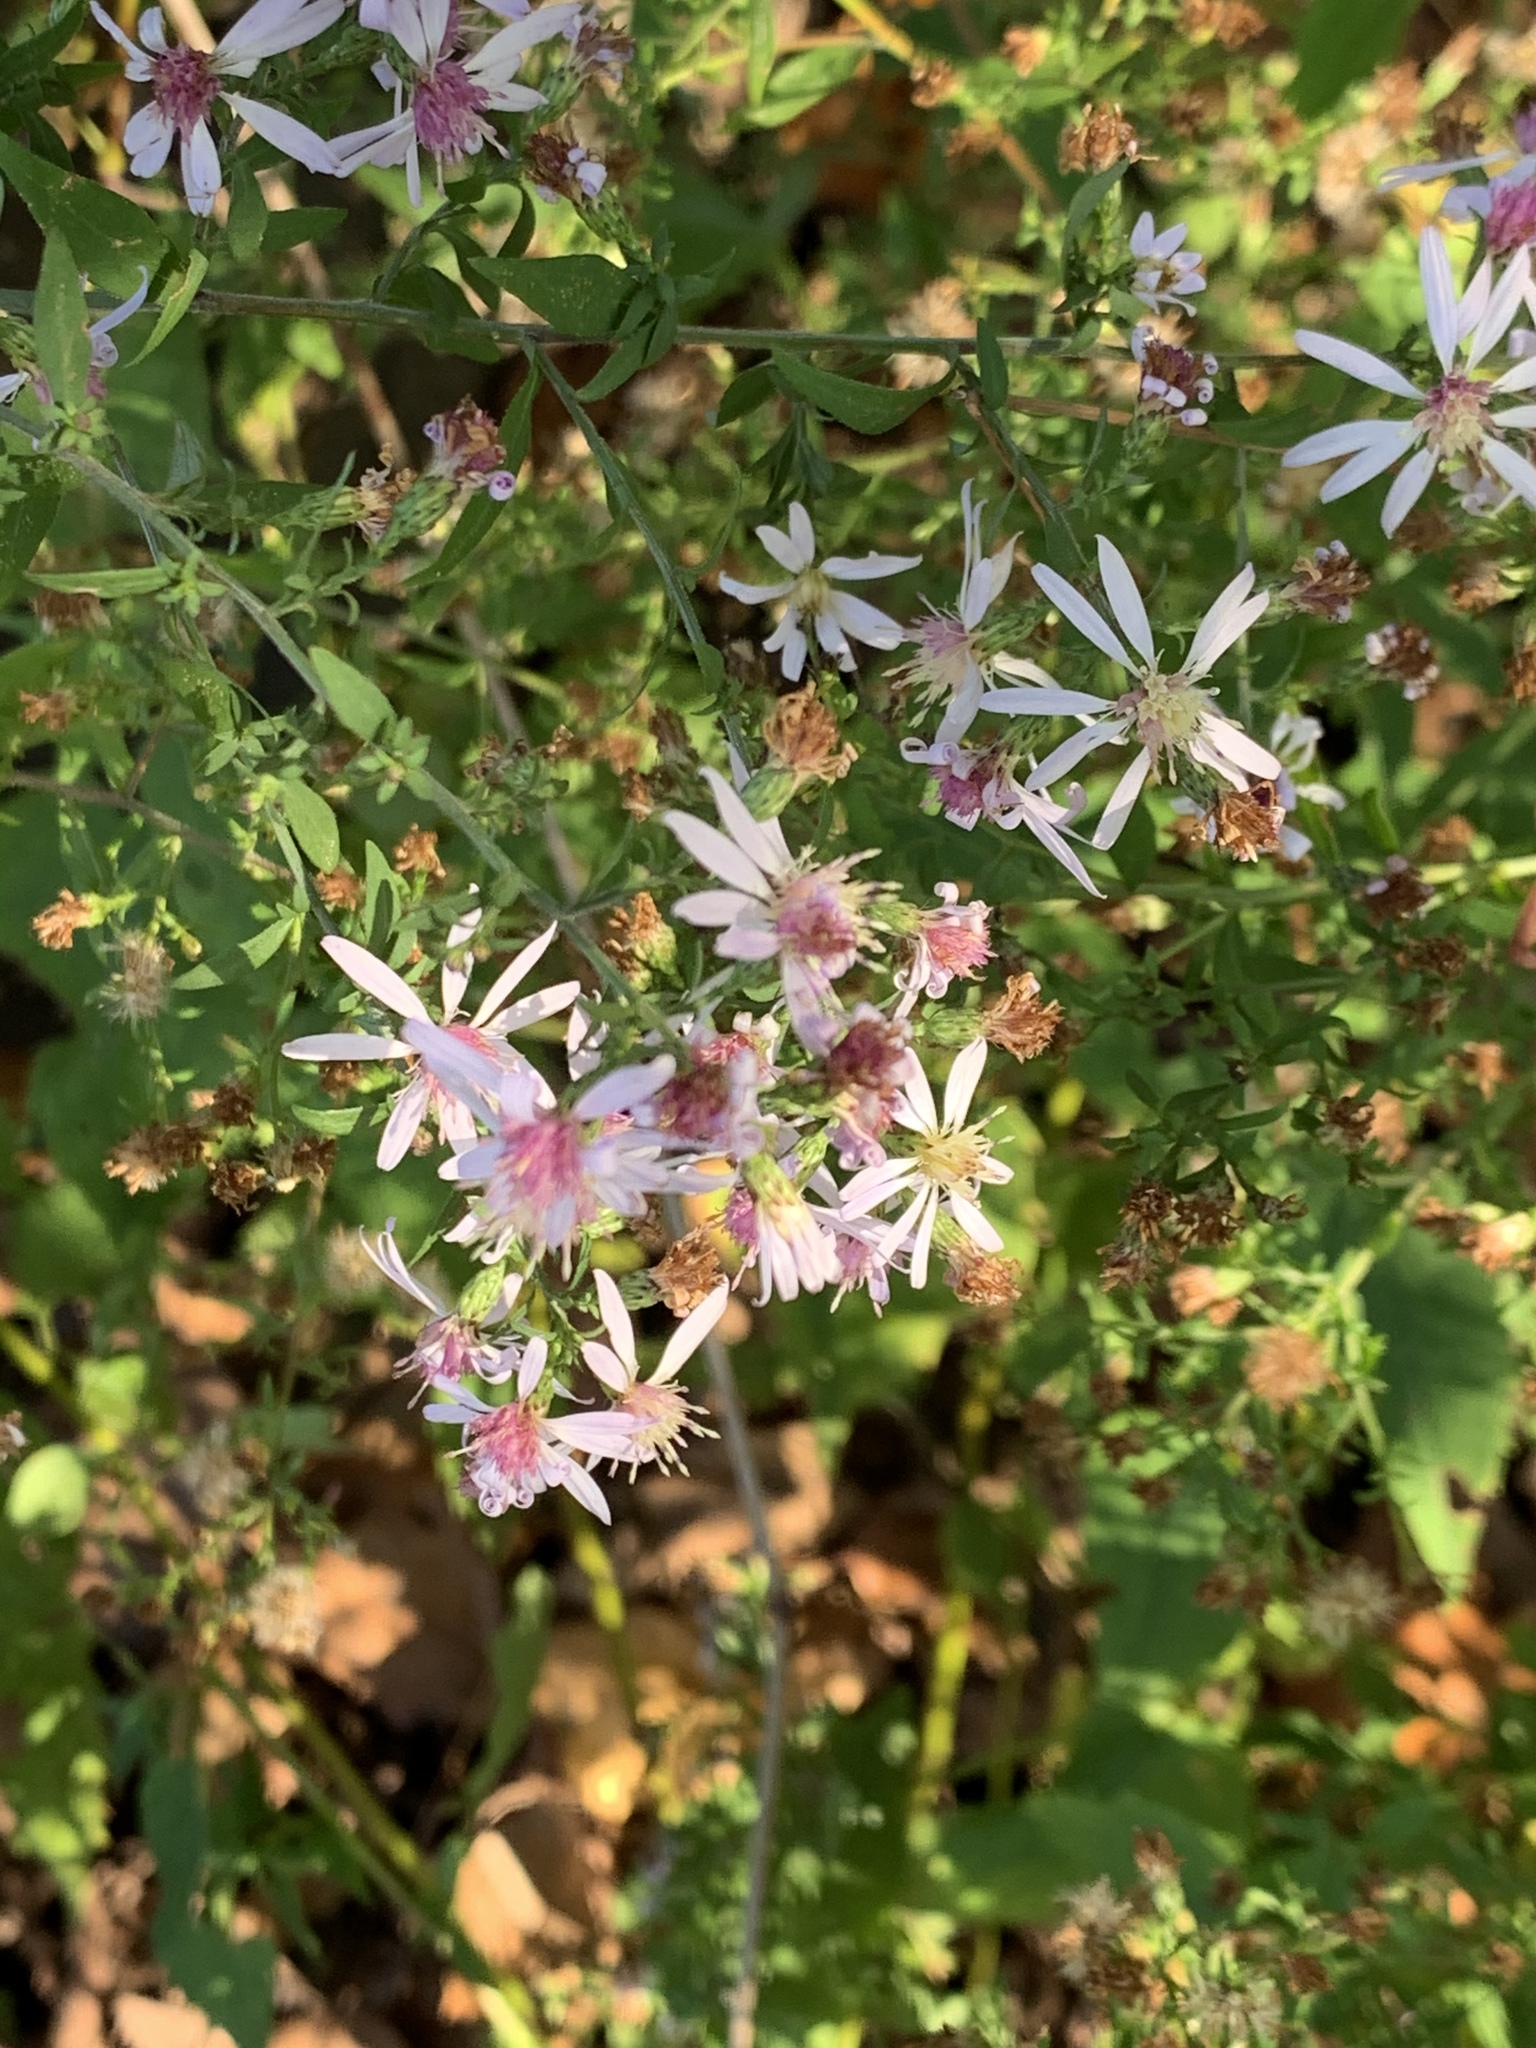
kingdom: Plantae
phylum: Tracheophyta
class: Magnoliopsida
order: Asterales
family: Asteraceae
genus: Symphyotrichum
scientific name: Symphyotrichum cordifolium
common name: Beeweed
